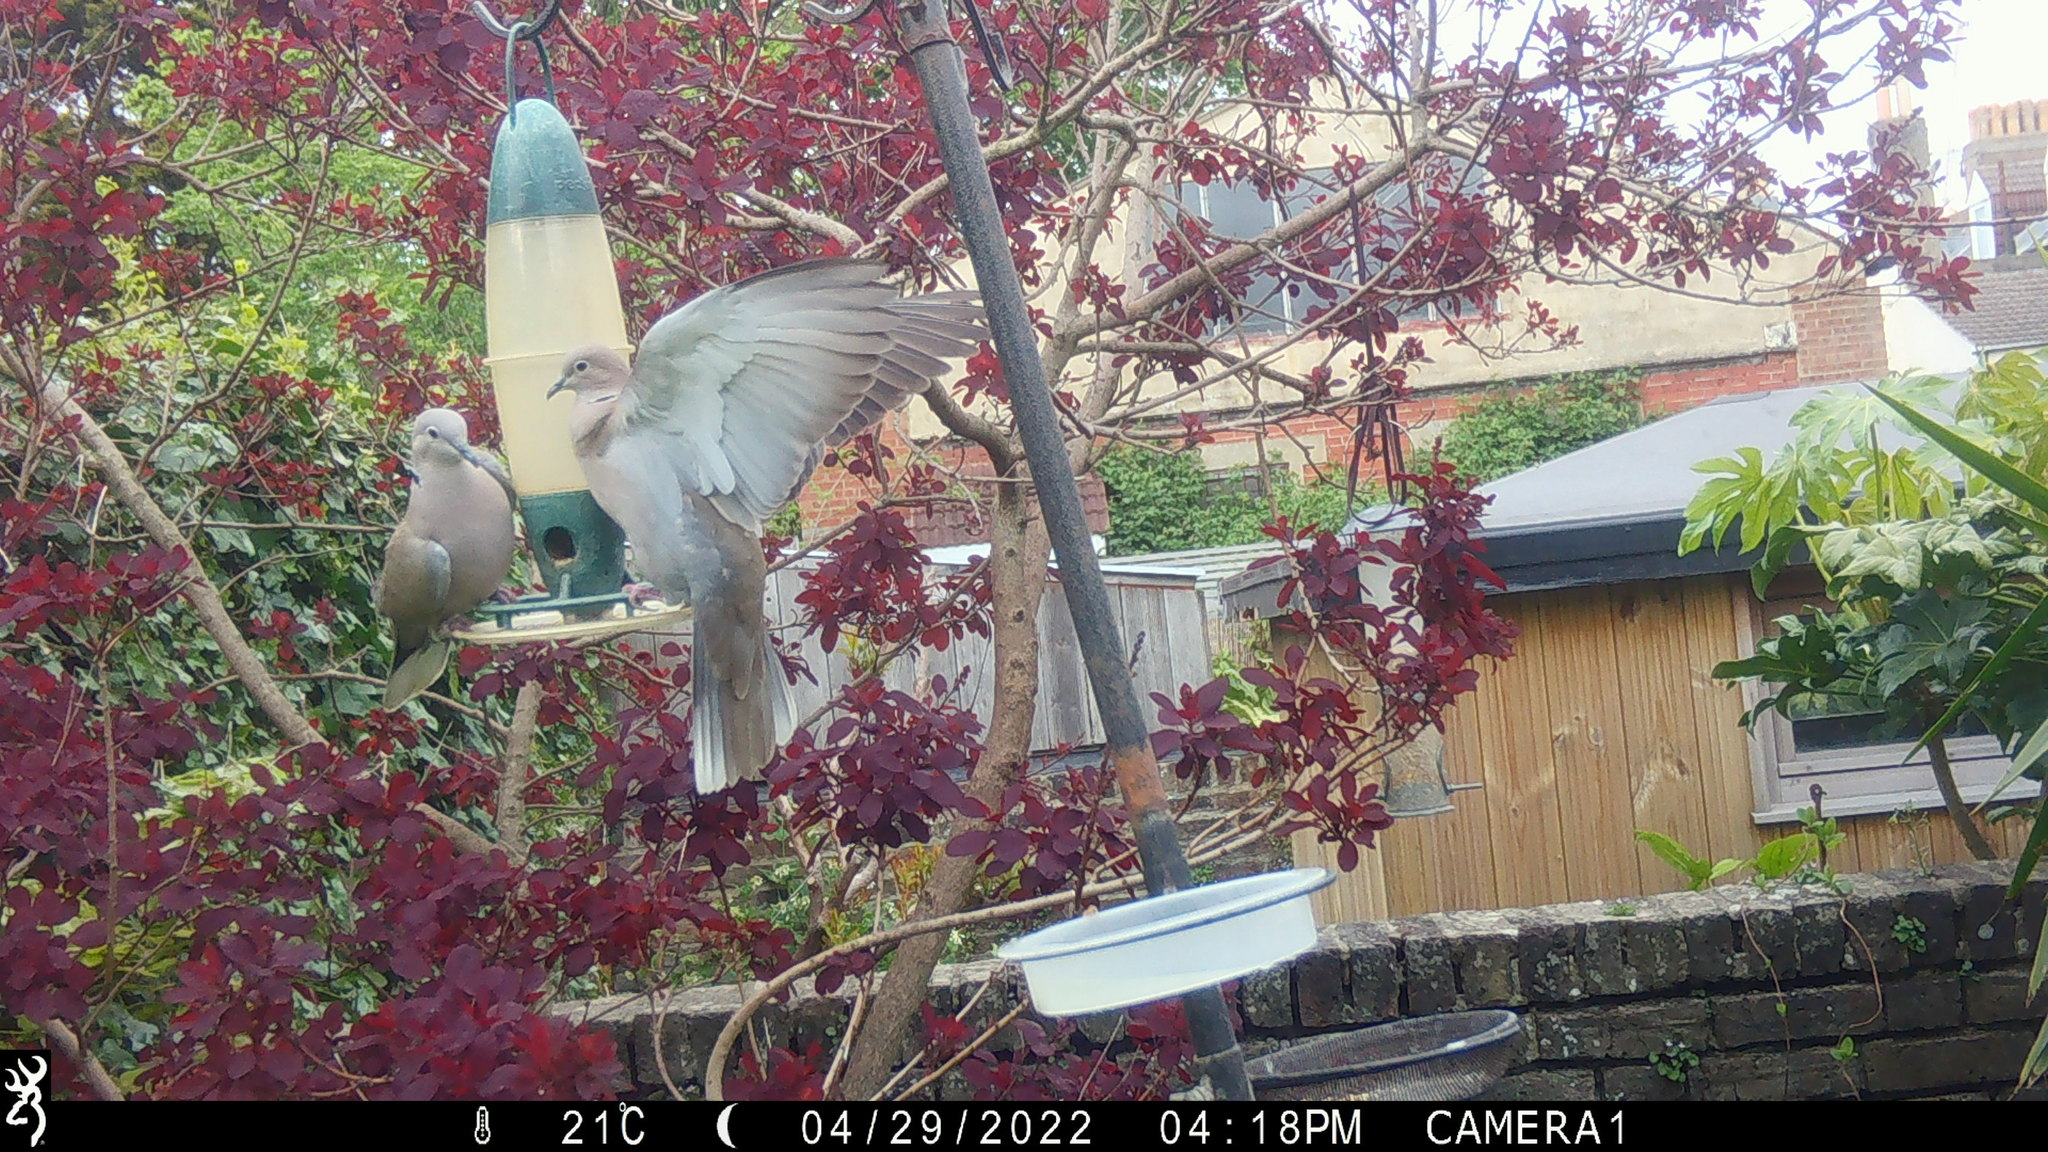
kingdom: Animalia
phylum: Chordata
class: Aves
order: Columbiformes
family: Columbidae
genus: Streptopelia
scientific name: Streptopelia decaocto
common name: Eurasian collared dove
